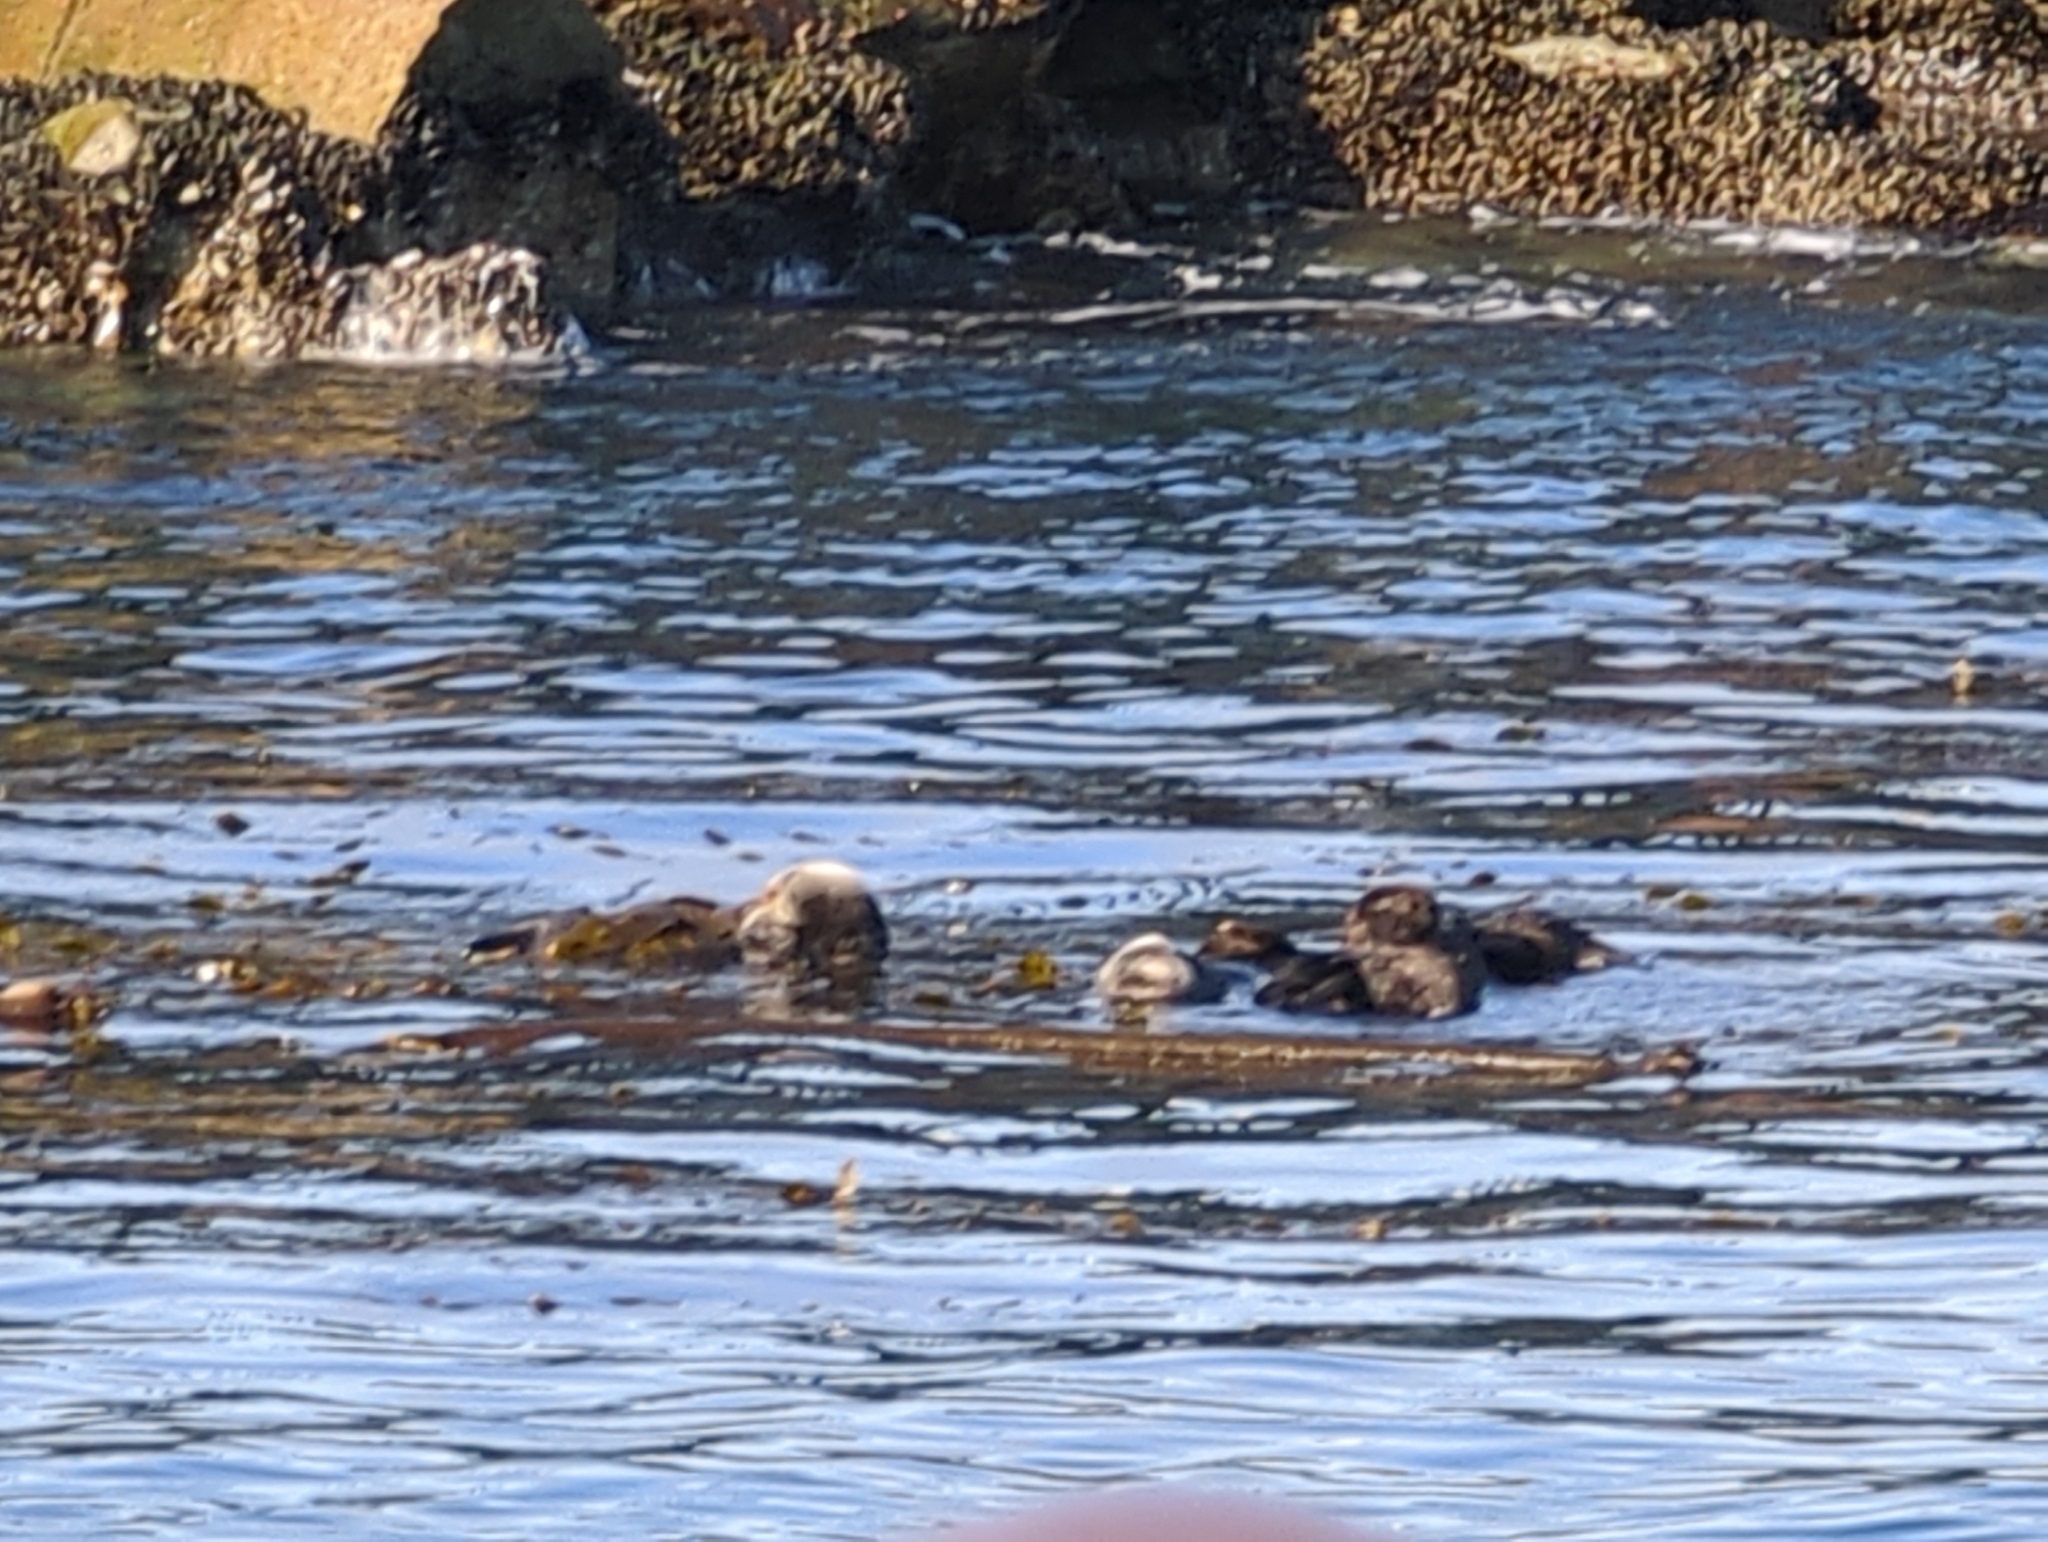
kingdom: Animalia
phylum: Chordata
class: Mammalia
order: Carnivora
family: Mustelidae
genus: Enhydra
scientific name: Enhydra lutris
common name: Sea otter
